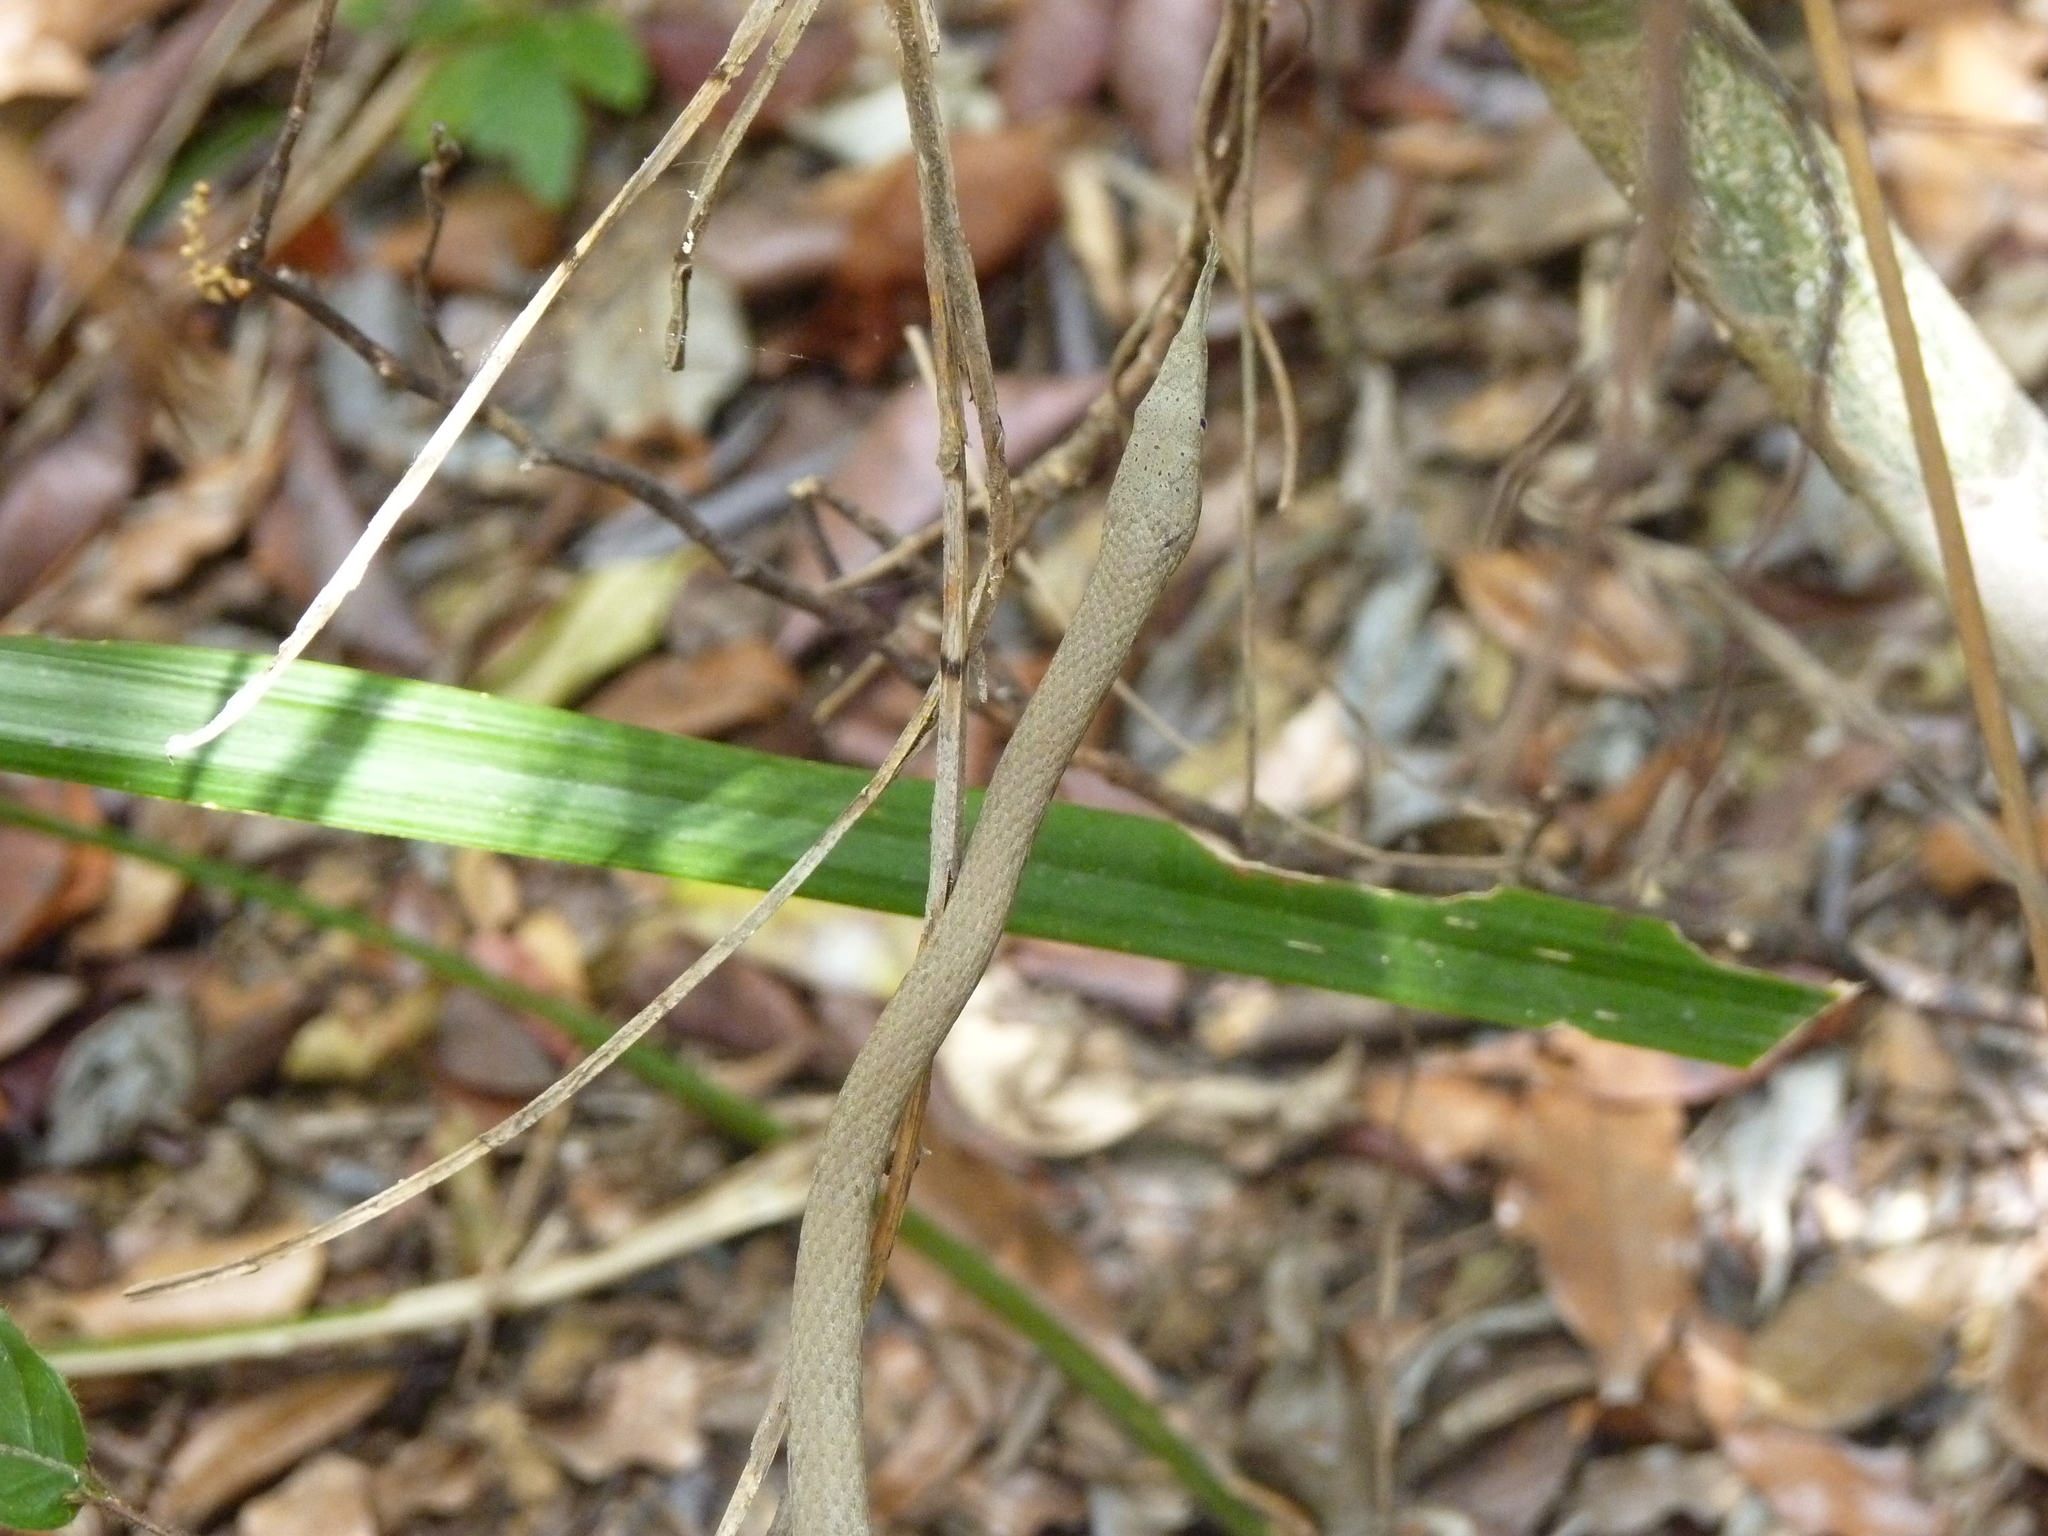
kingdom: Animalia
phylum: Chordata
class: Squamata
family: Pseudoxyrhophiidae
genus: Langaha
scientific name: Langaha madagascariensis
